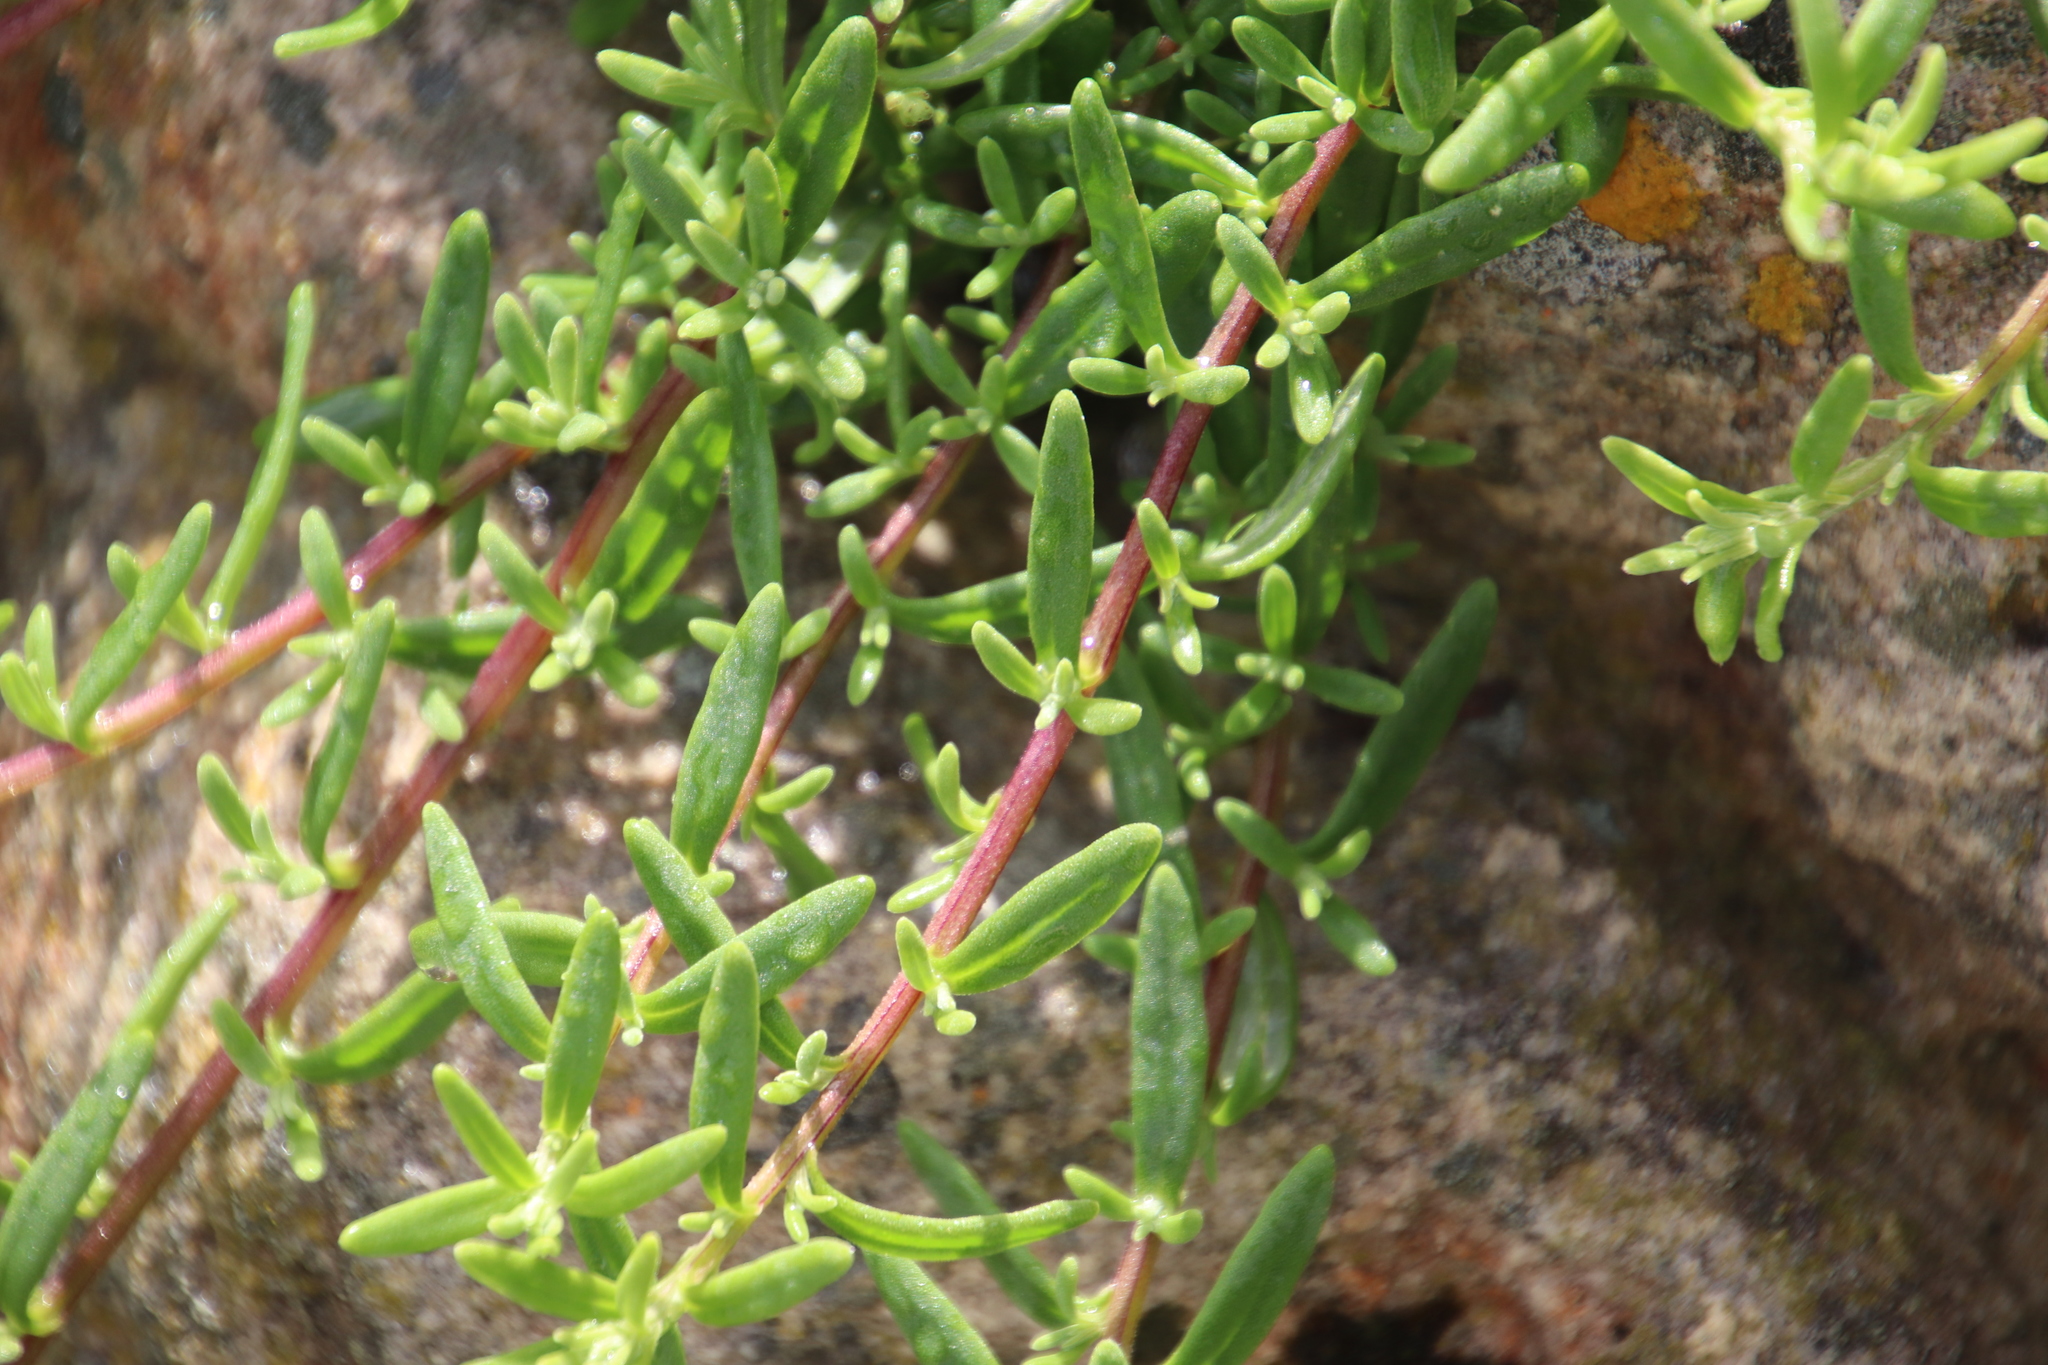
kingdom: Plantae
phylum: Tracheophyta
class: Magnoliopsida
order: Caryophyllales
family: Aizoaceae
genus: Tetragonia
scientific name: Tetragonia fruticosa
